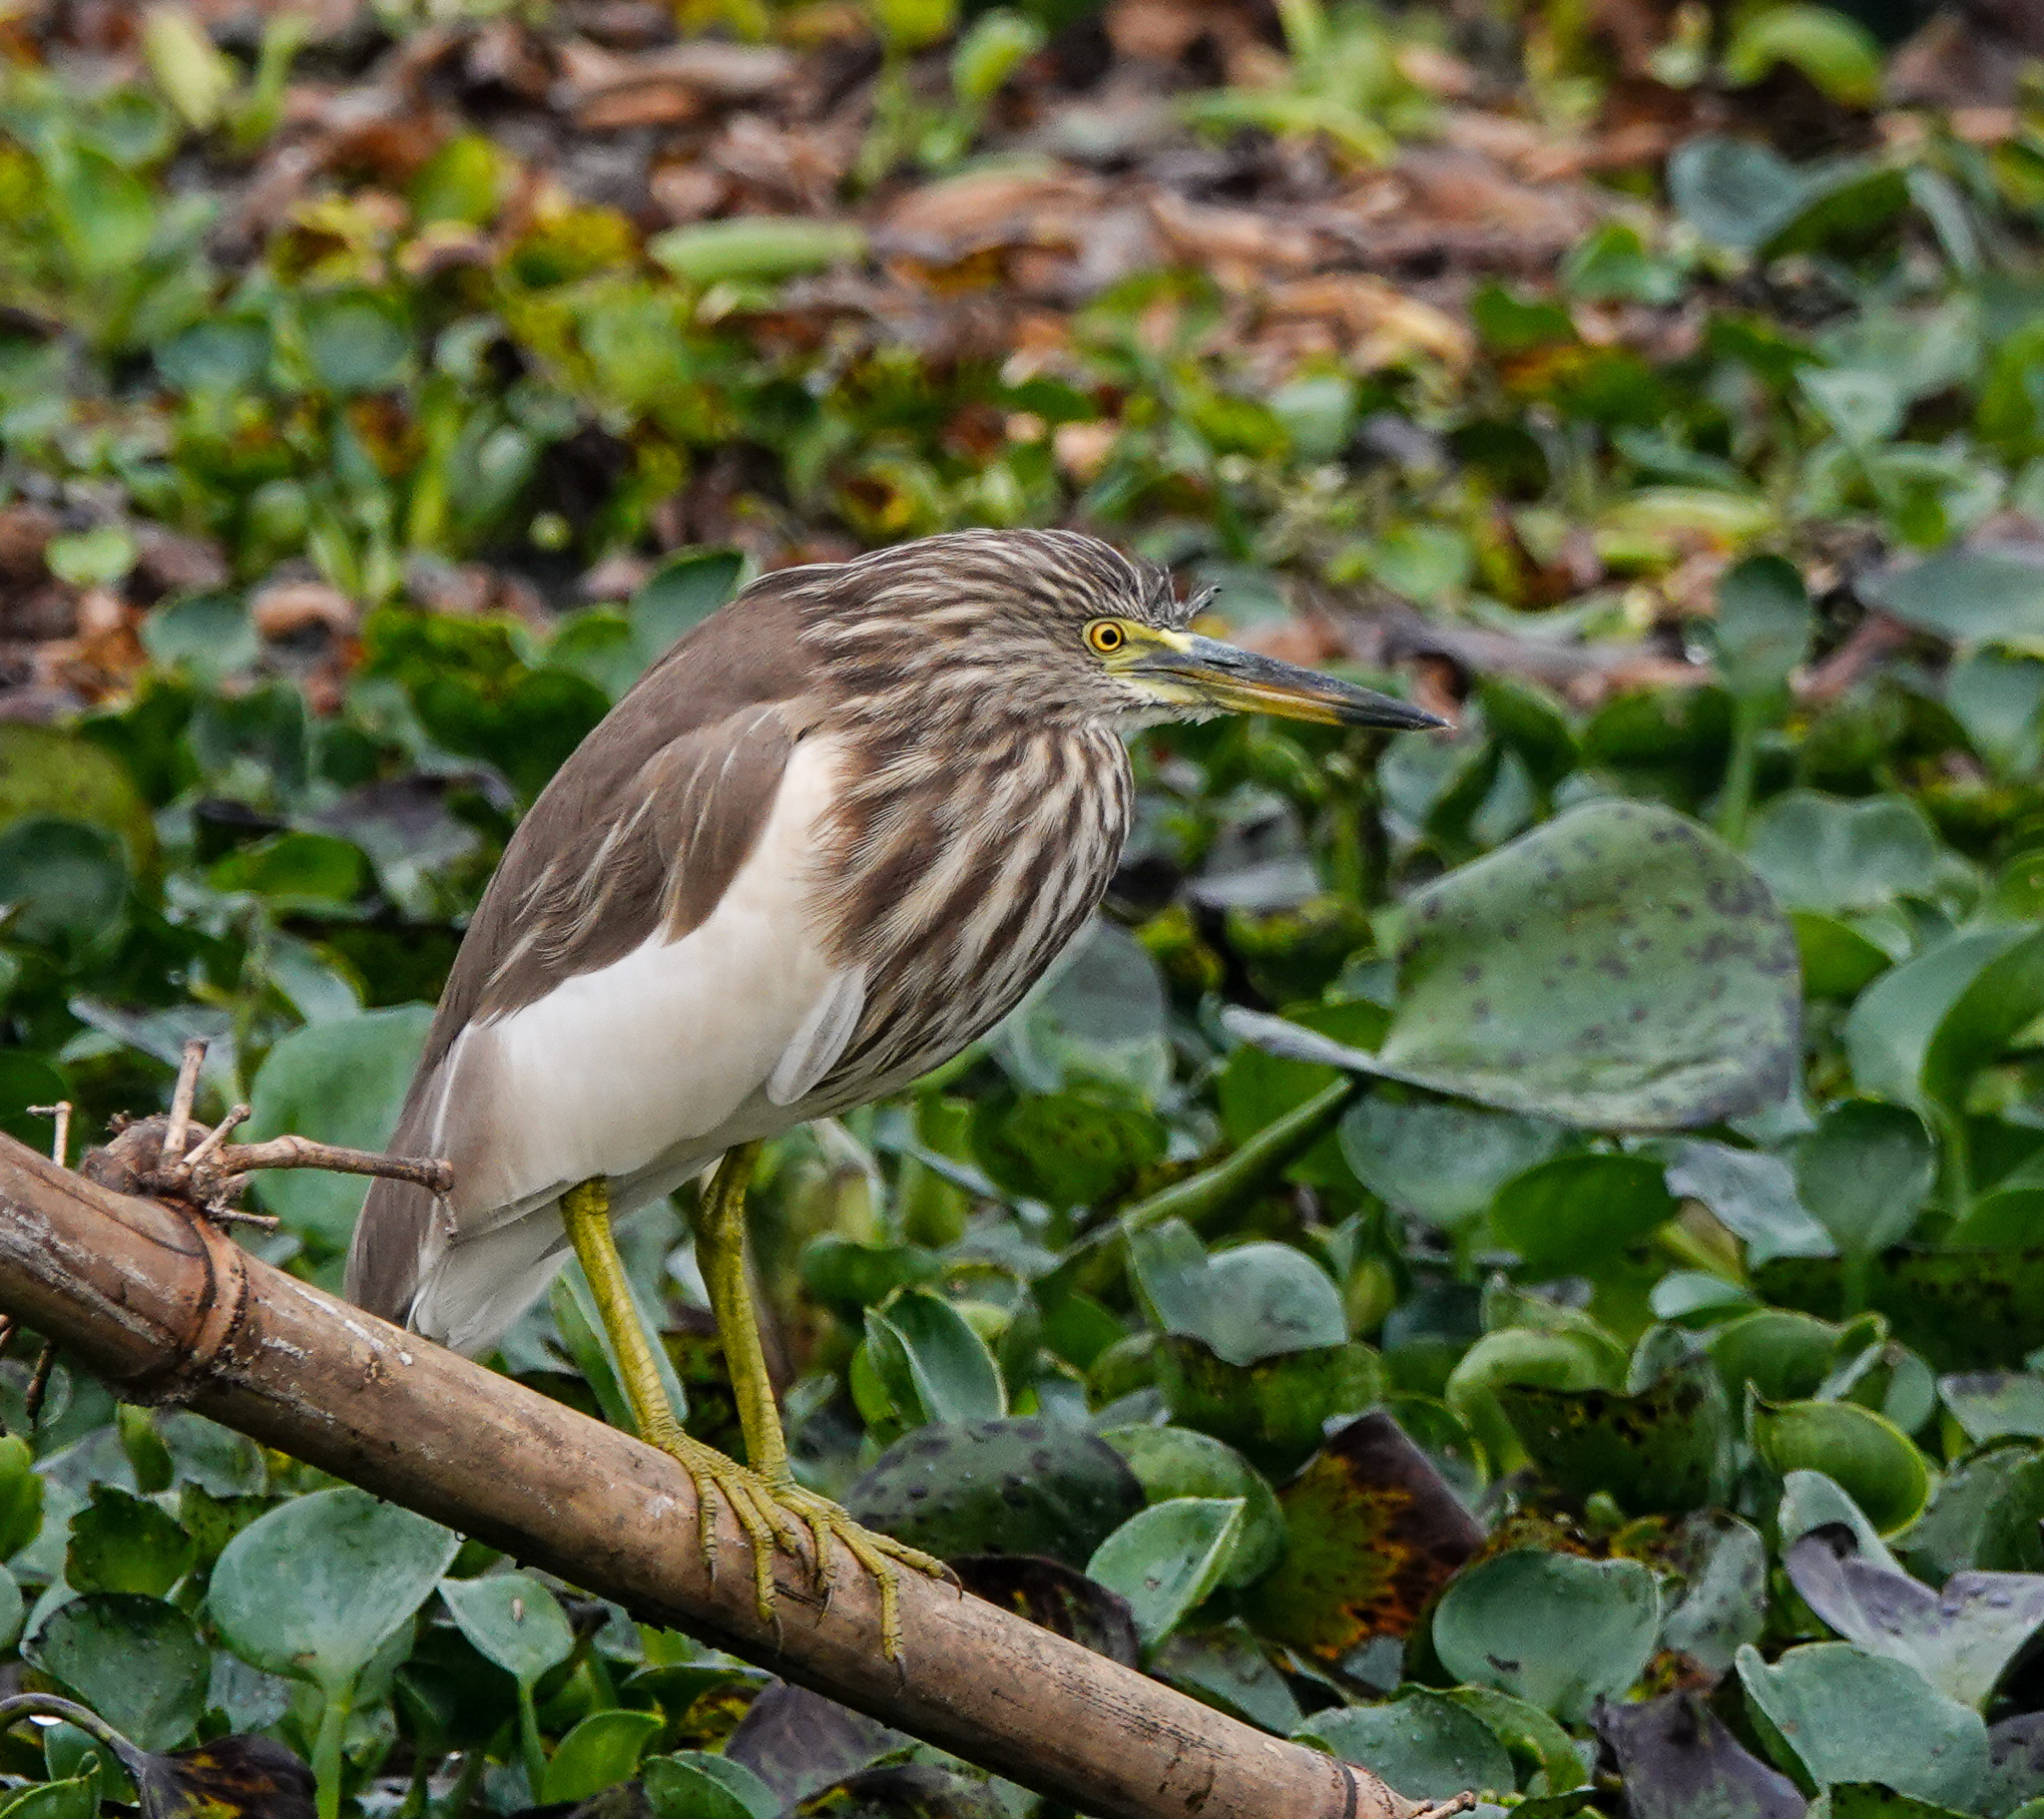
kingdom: Animalia
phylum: Chordata
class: Aves
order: Pelecaniformes
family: Ardeidae
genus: Ardeola
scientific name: Ardeola grayii
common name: Indian pond heron
